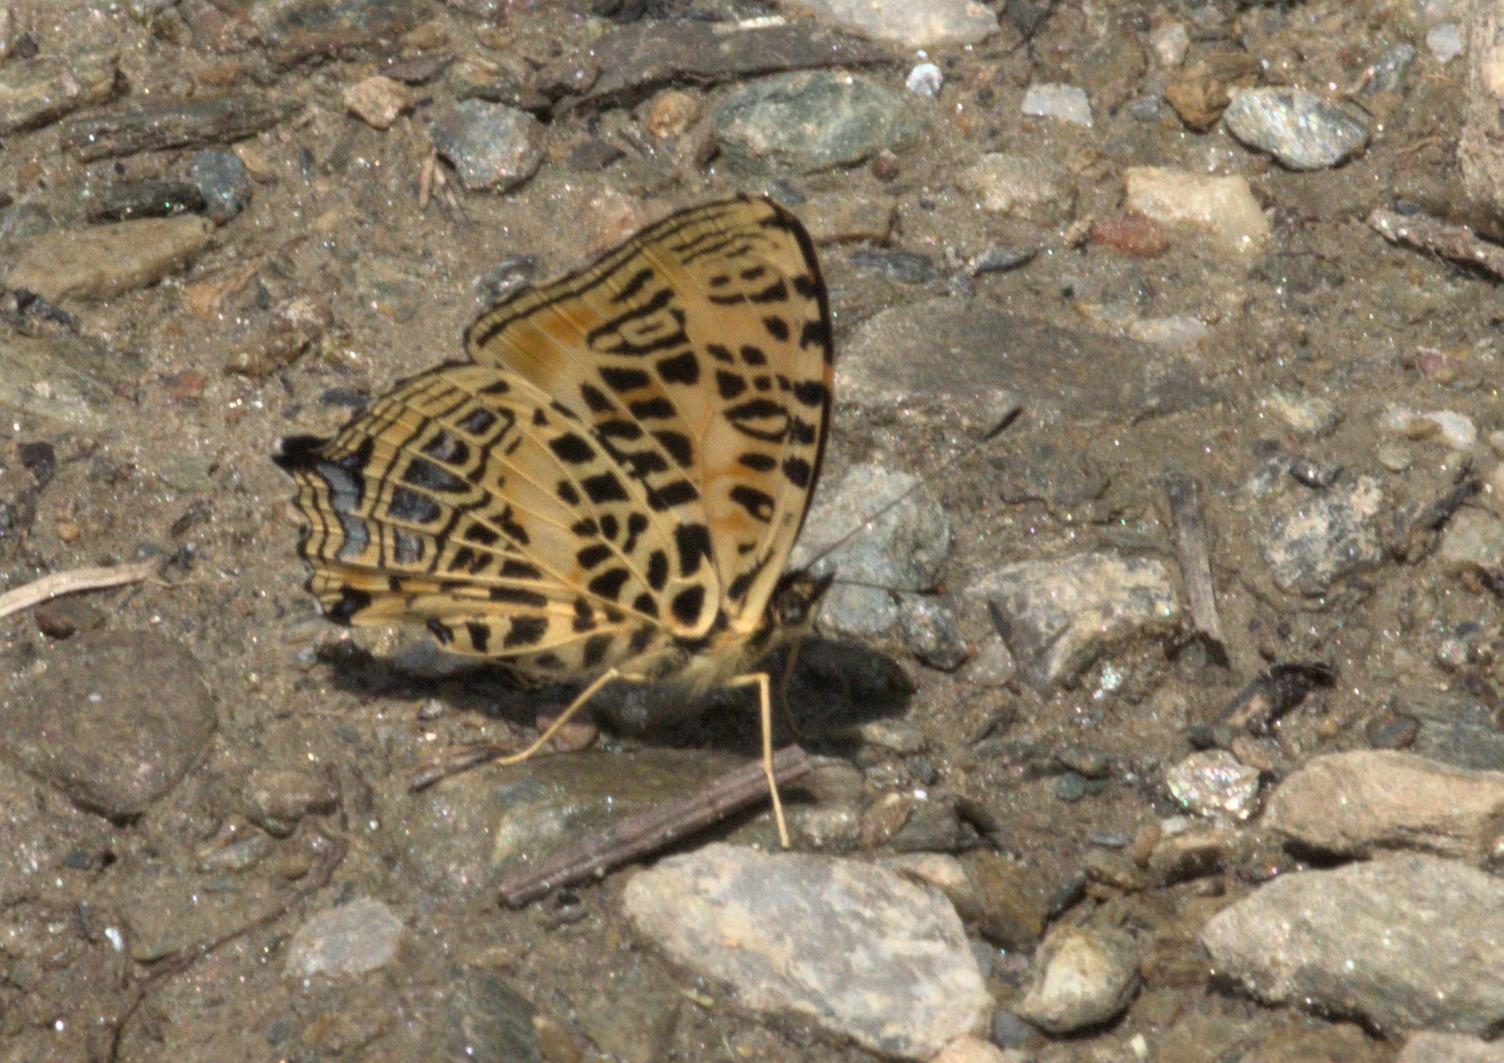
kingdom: Animalia
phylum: Arthropoda
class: Insecta
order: Lepidoptera
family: Nymphalidae
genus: Symbrenthia
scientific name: Symbrenthia niphanda
